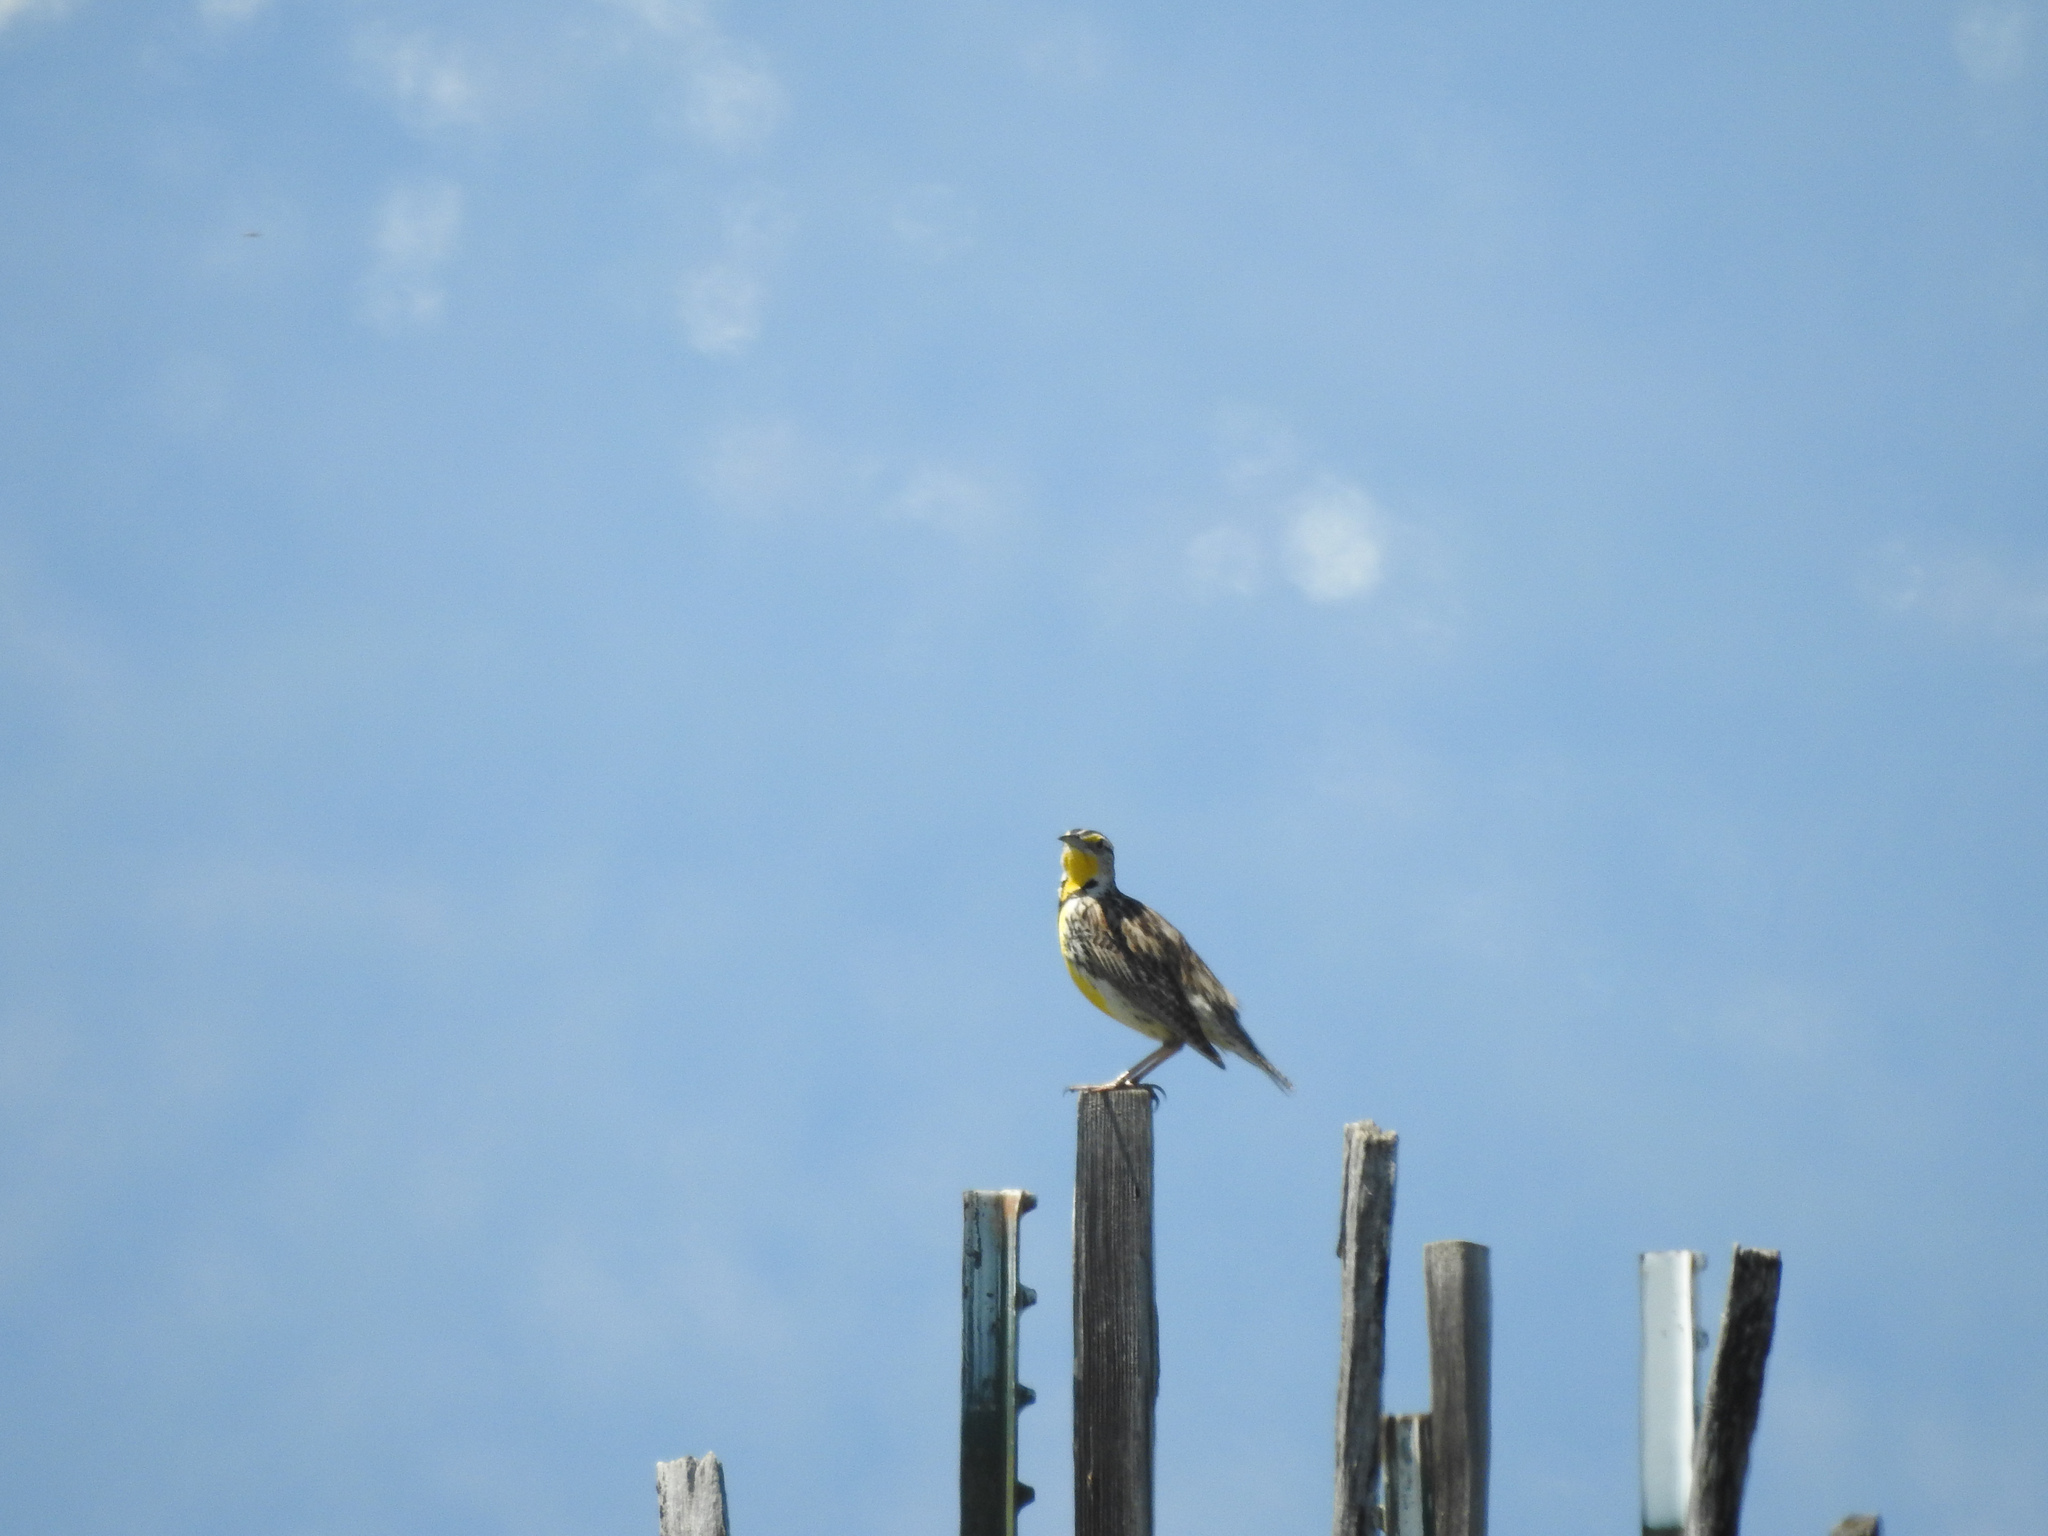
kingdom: Animalia
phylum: Chordata
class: Aves
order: Passeriformes
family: Icteridae
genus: Sturnella
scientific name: Sturnella neglecta
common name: Western meadowlark
